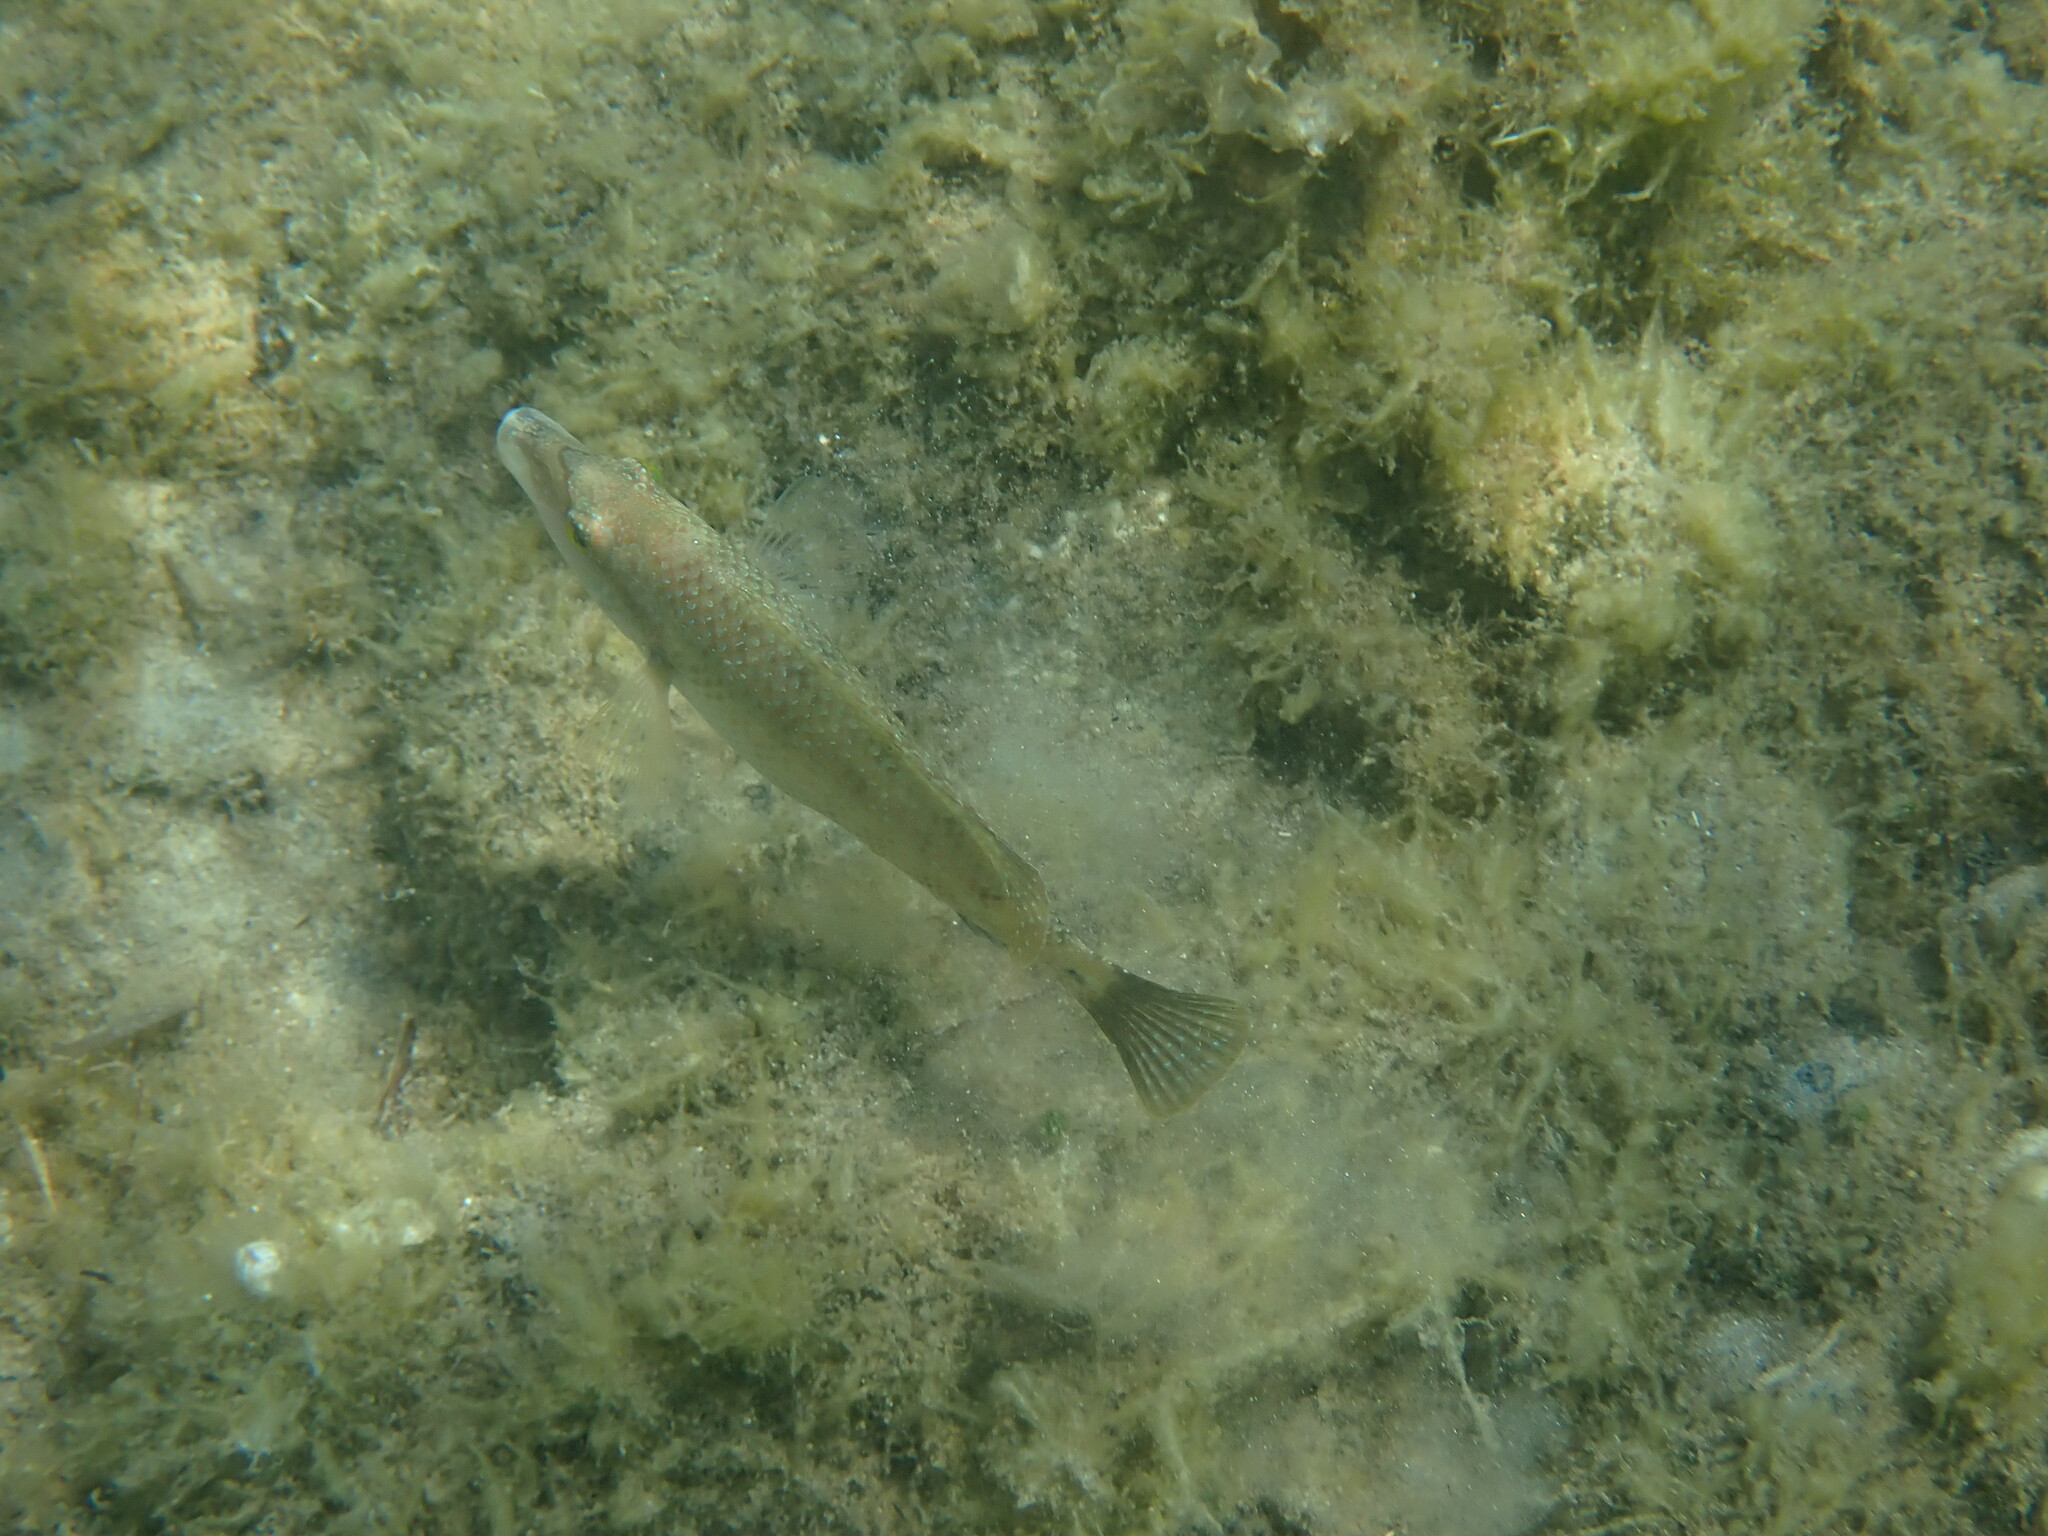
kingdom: Animalia
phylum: Chordata
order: Perciformes
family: Labridae
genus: Symphodus
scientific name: Symphodus tinca
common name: Peacock wrasse
